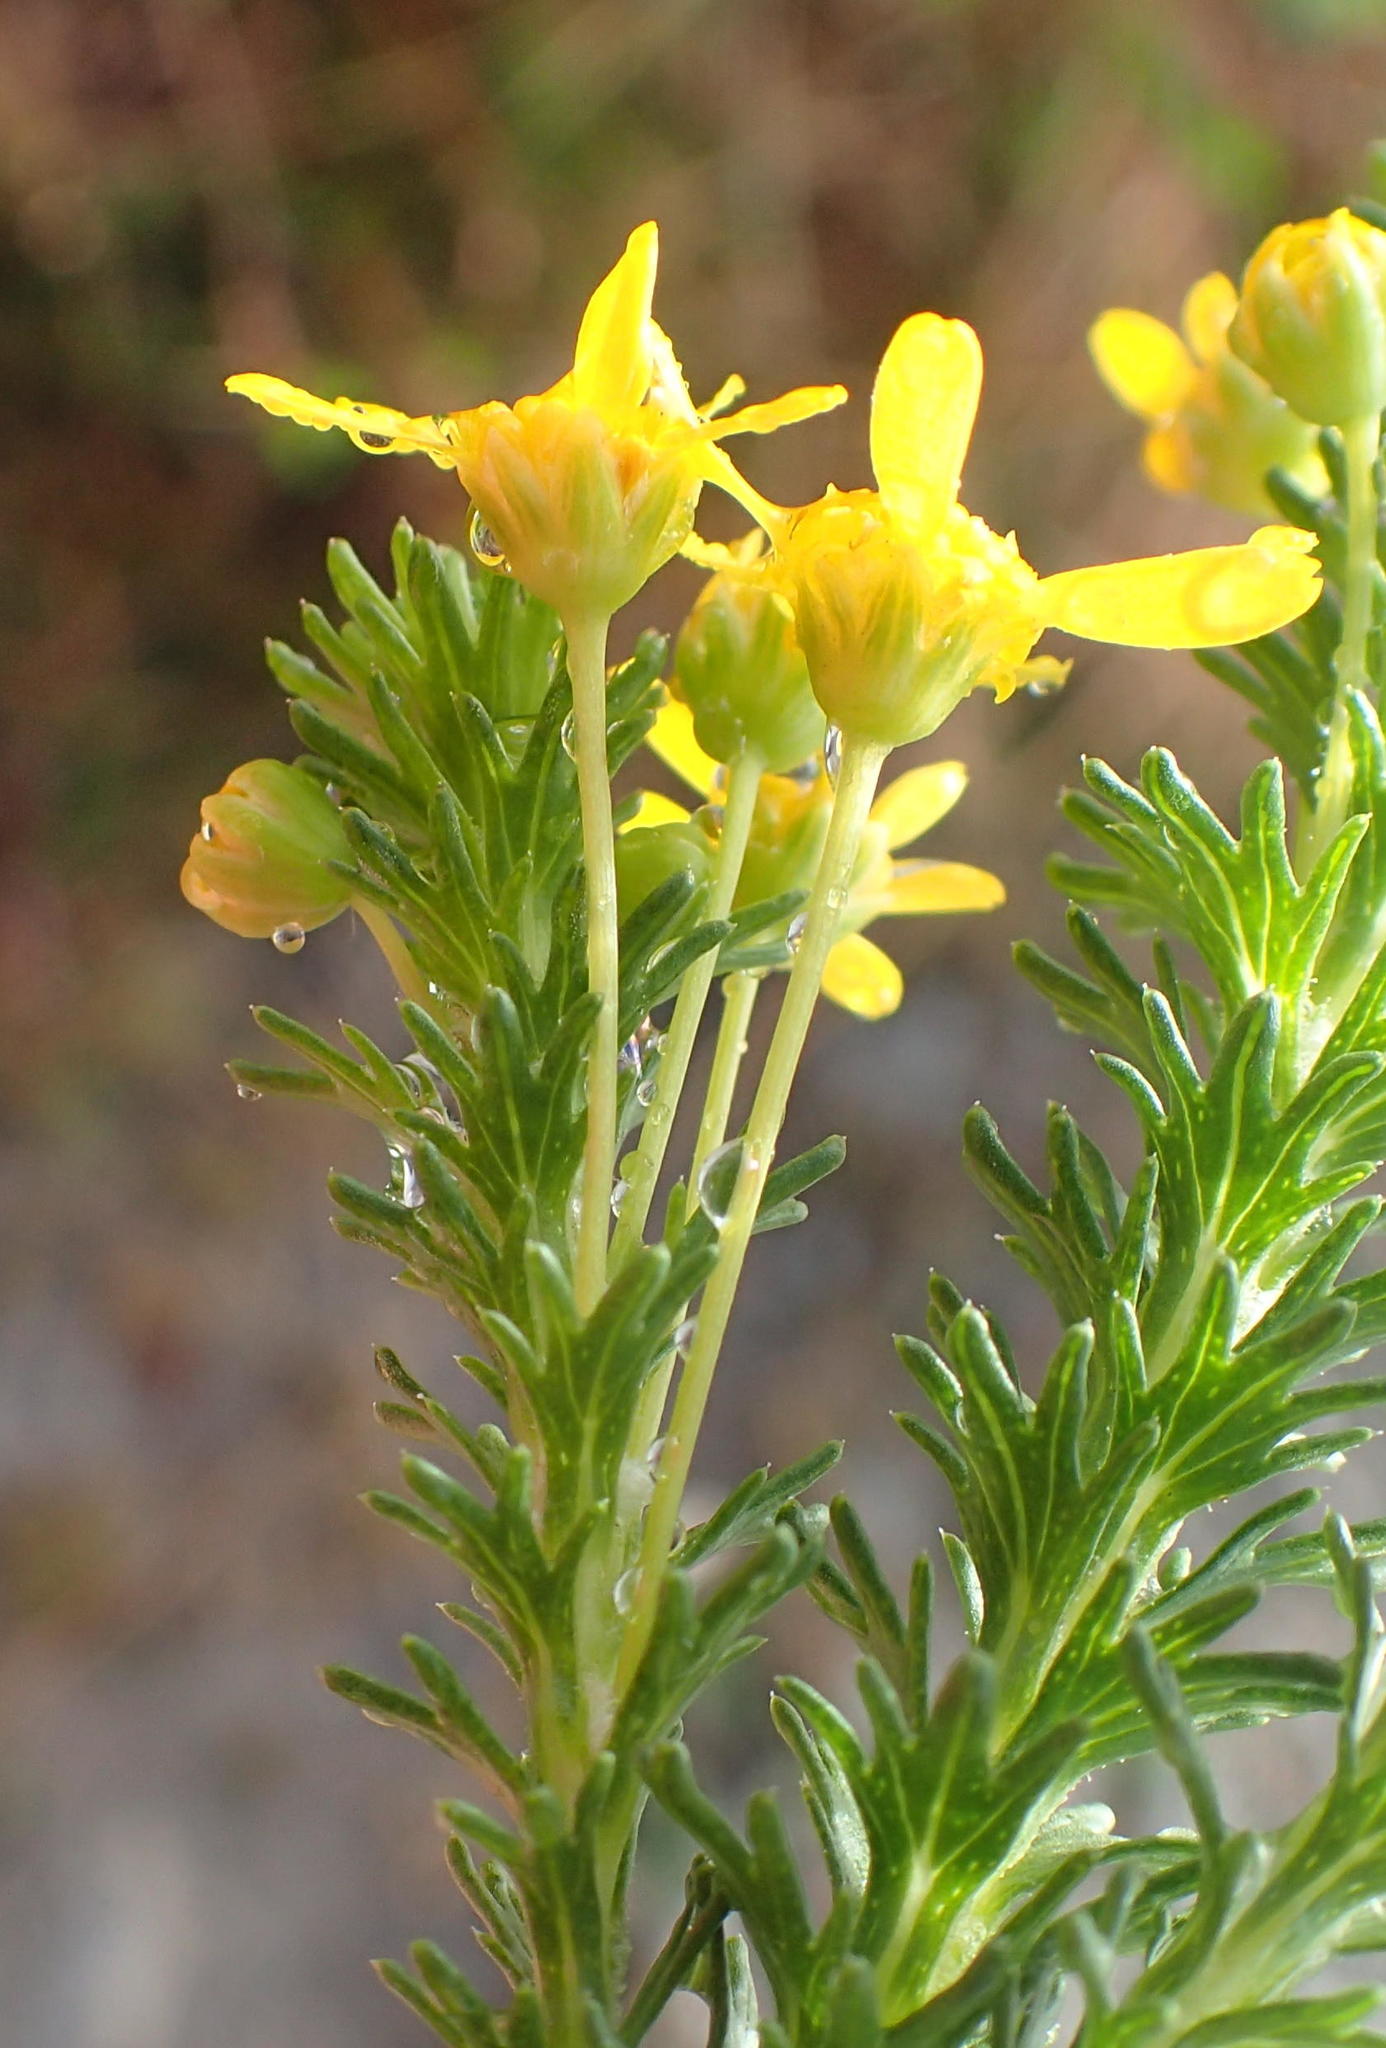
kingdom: Plantae
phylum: Tracheophyta
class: Magnoliopsida
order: Asterales
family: Asteraceae
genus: Euryops
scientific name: Euryops virgineus
